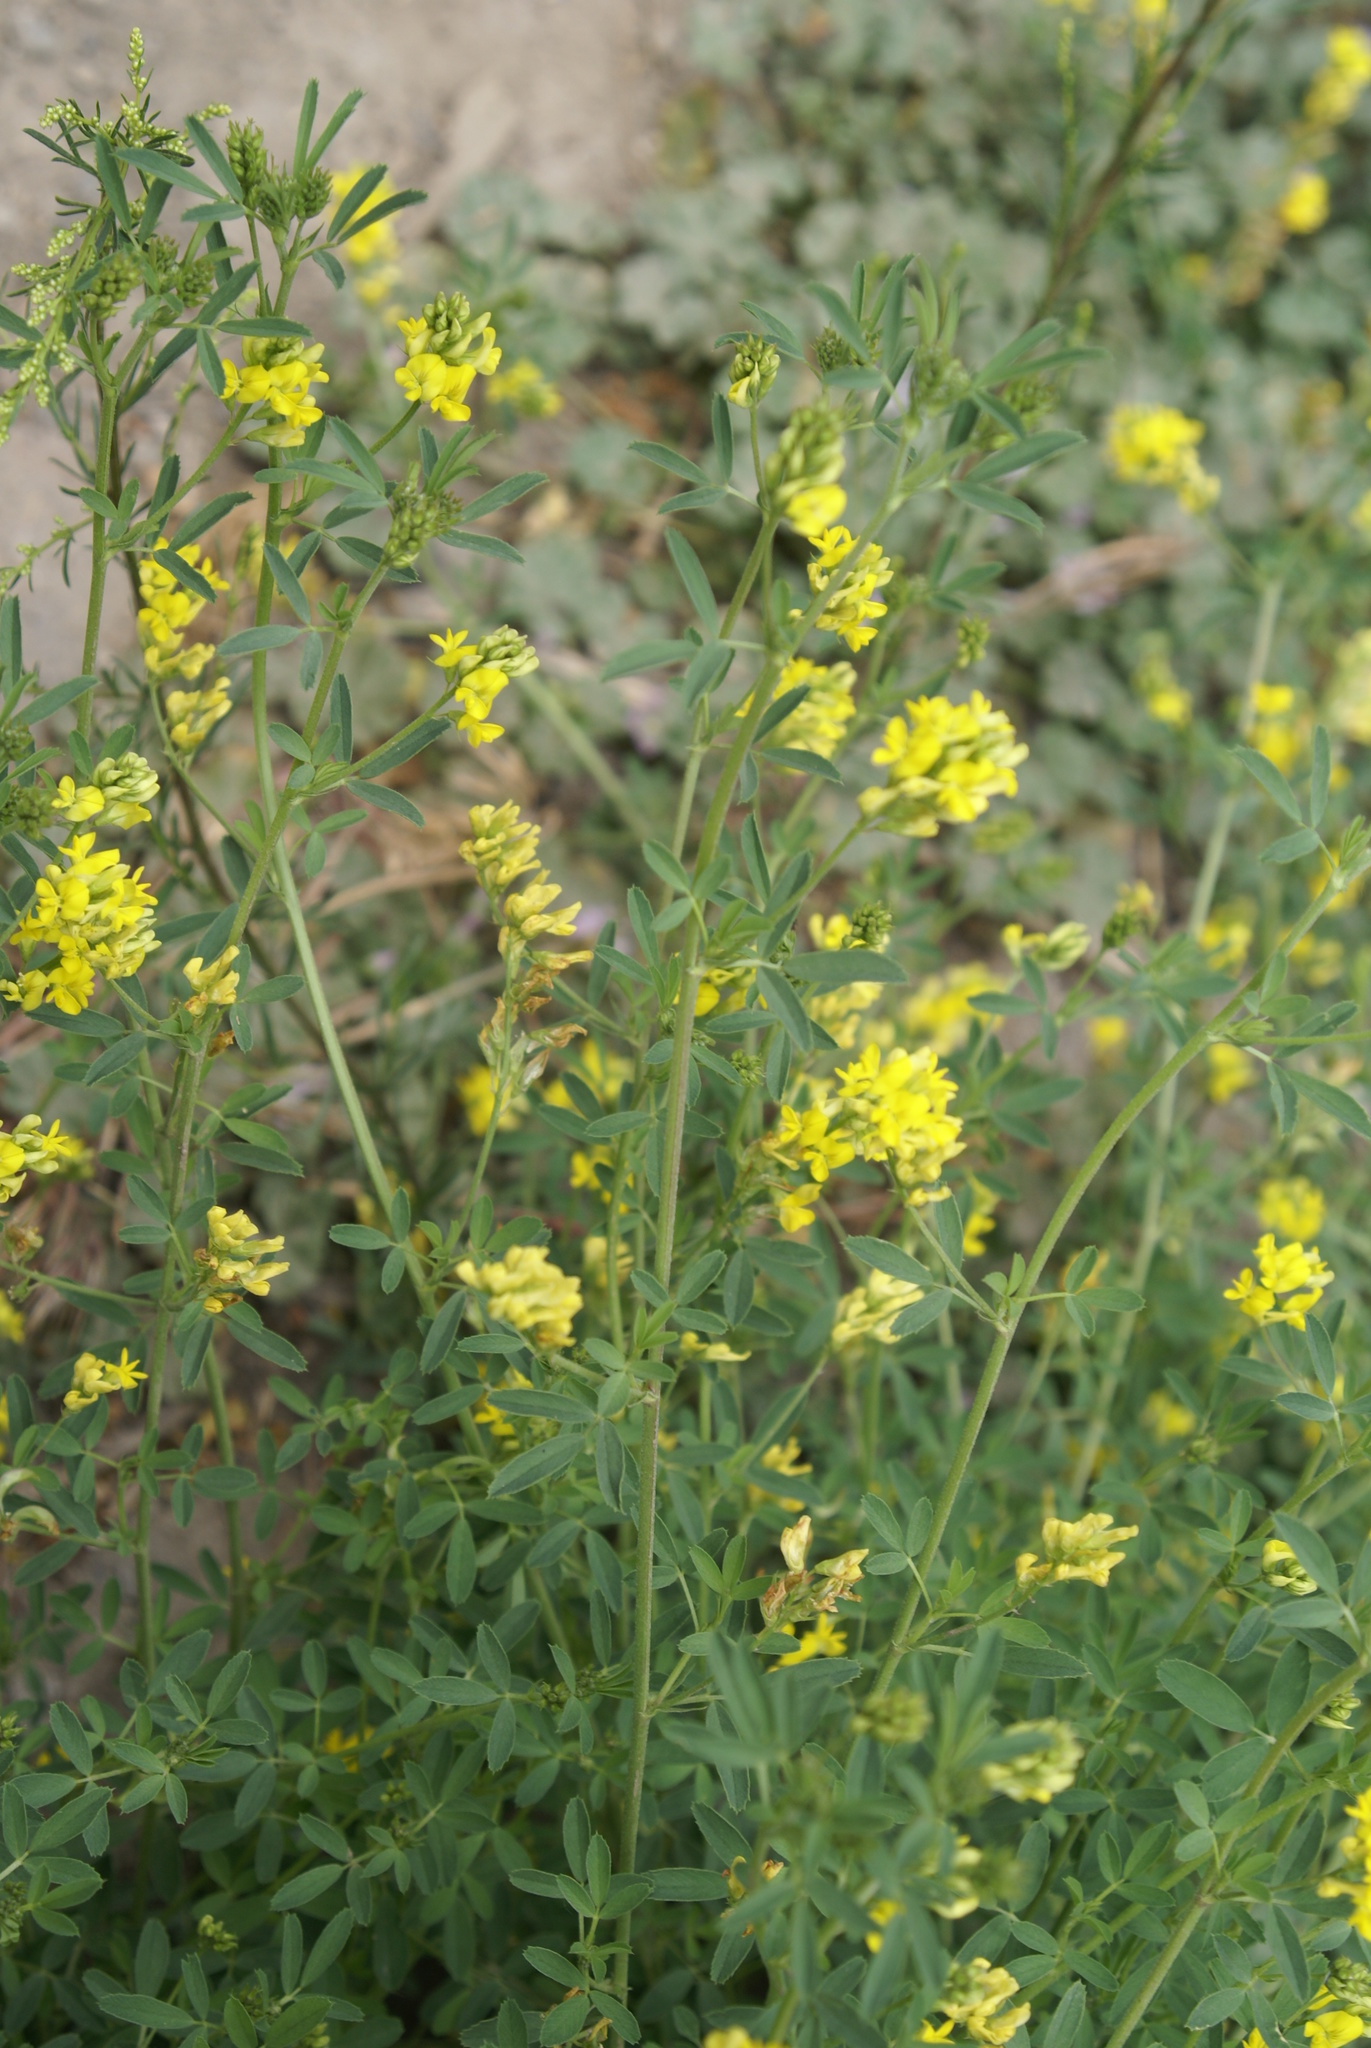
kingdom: Plantae
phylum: Tracheophyta
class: Magnoliopsida
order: Fabales
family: Fabaceae
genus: Medicago
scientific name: Medicago falcata
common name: Sickle medick
